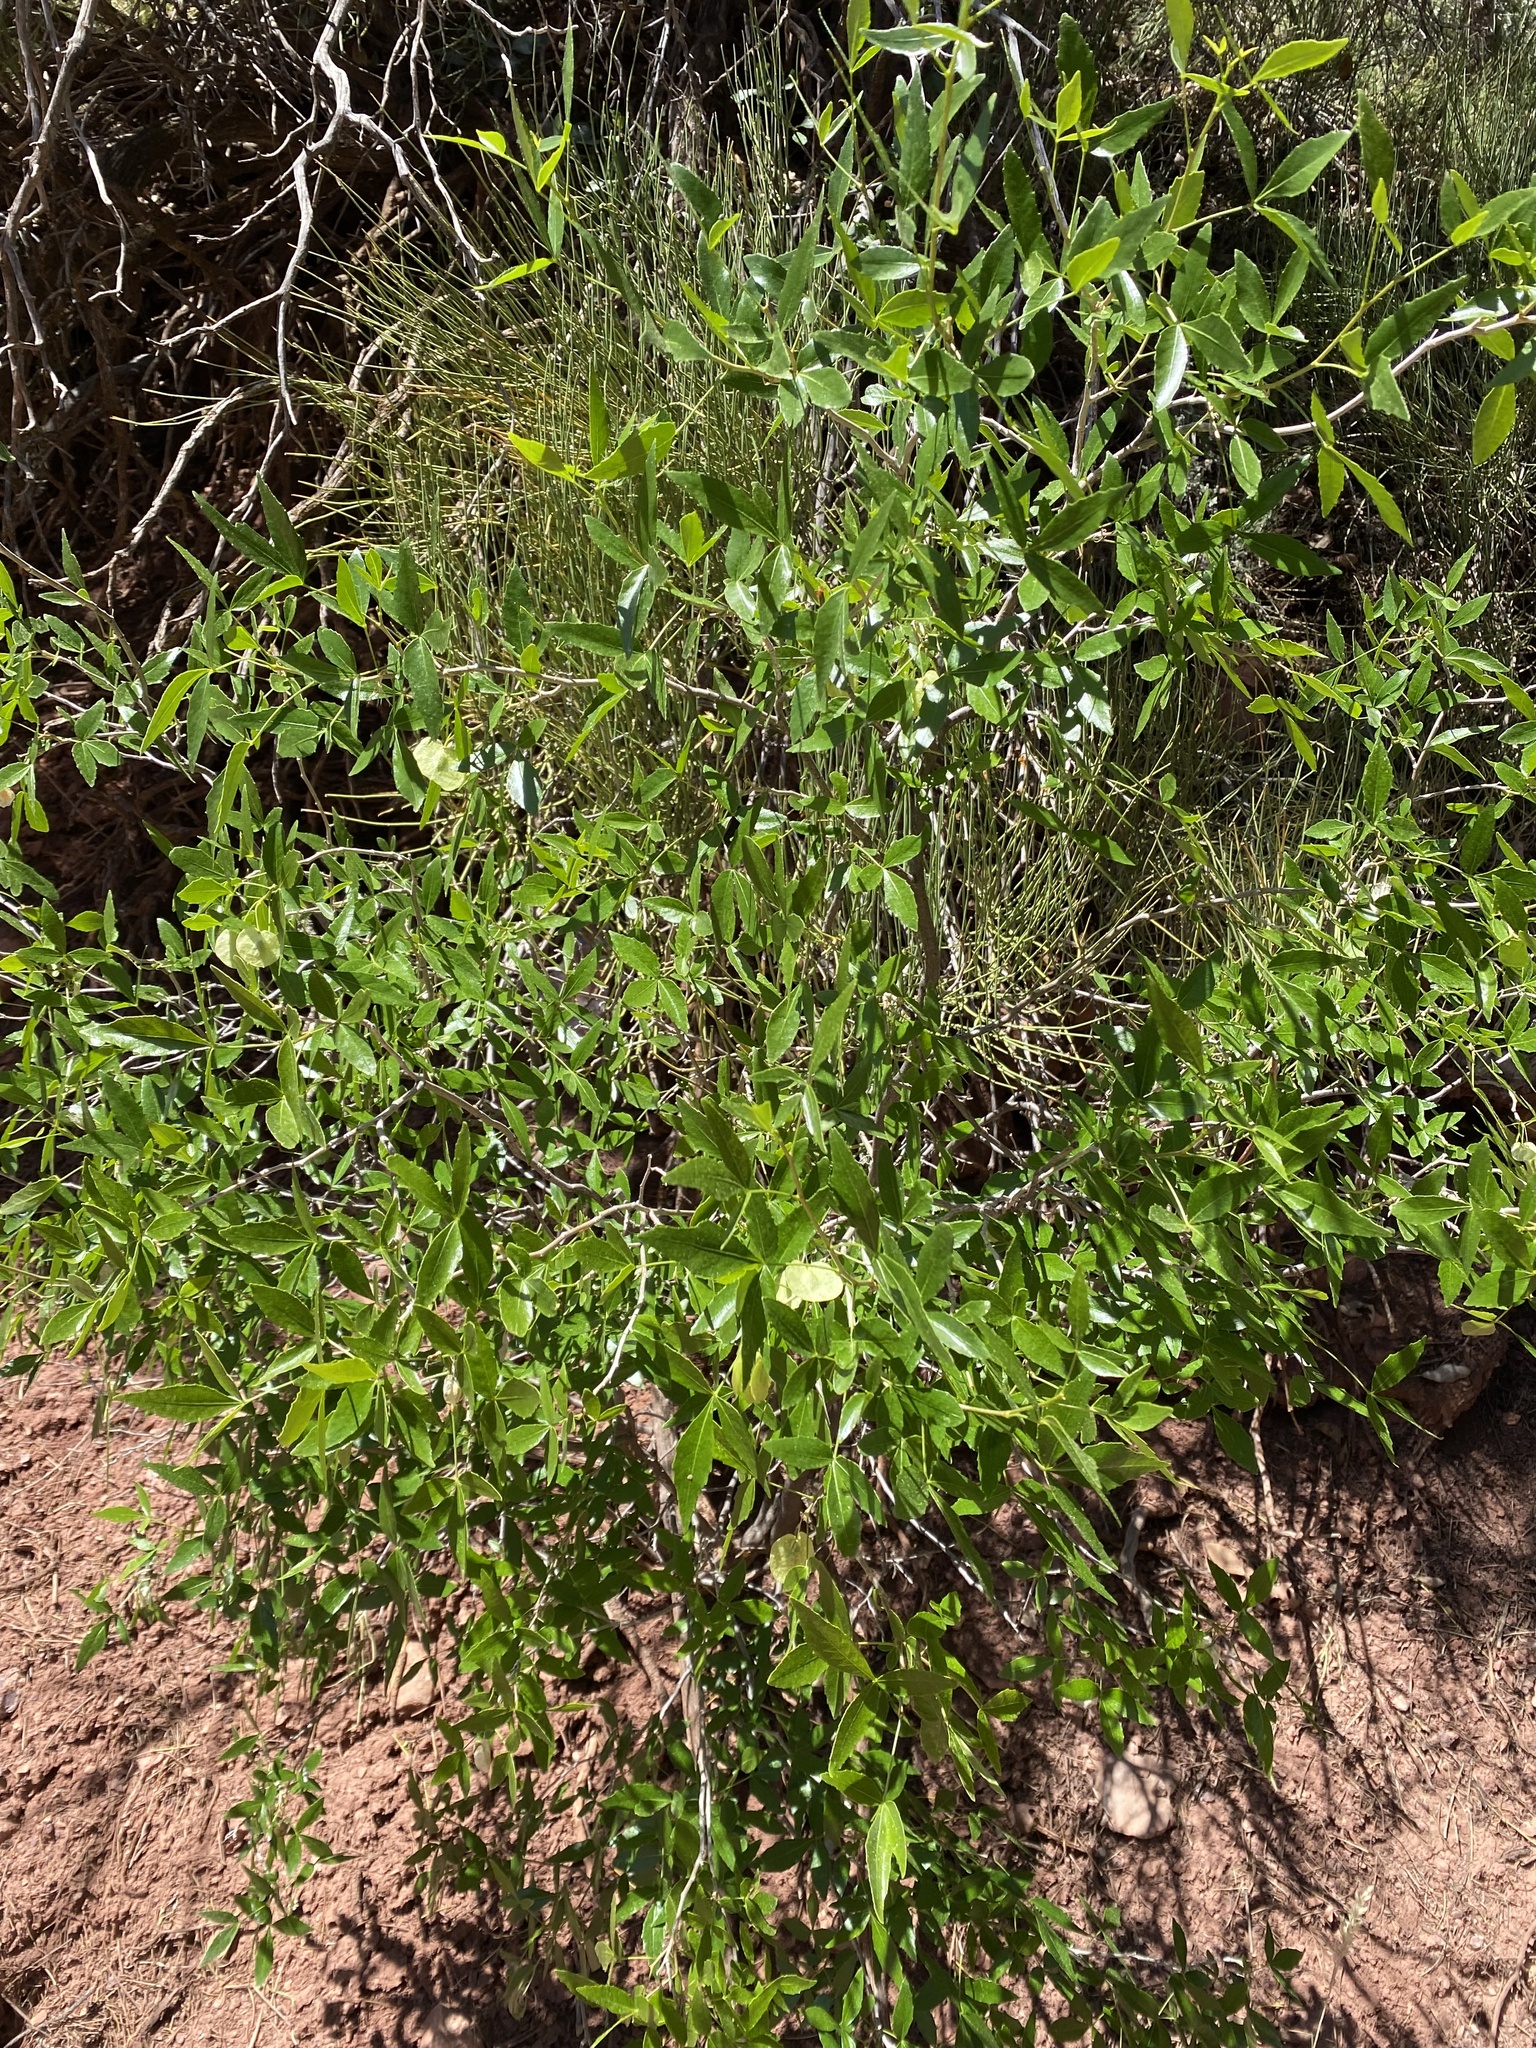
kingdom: Plantae
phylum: Tracheophyta
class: Magnoliopsida
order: Sapindales
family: Rutaceae
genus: Ptelea
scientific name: Ptelea trifoliata
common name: Common hop-tree
